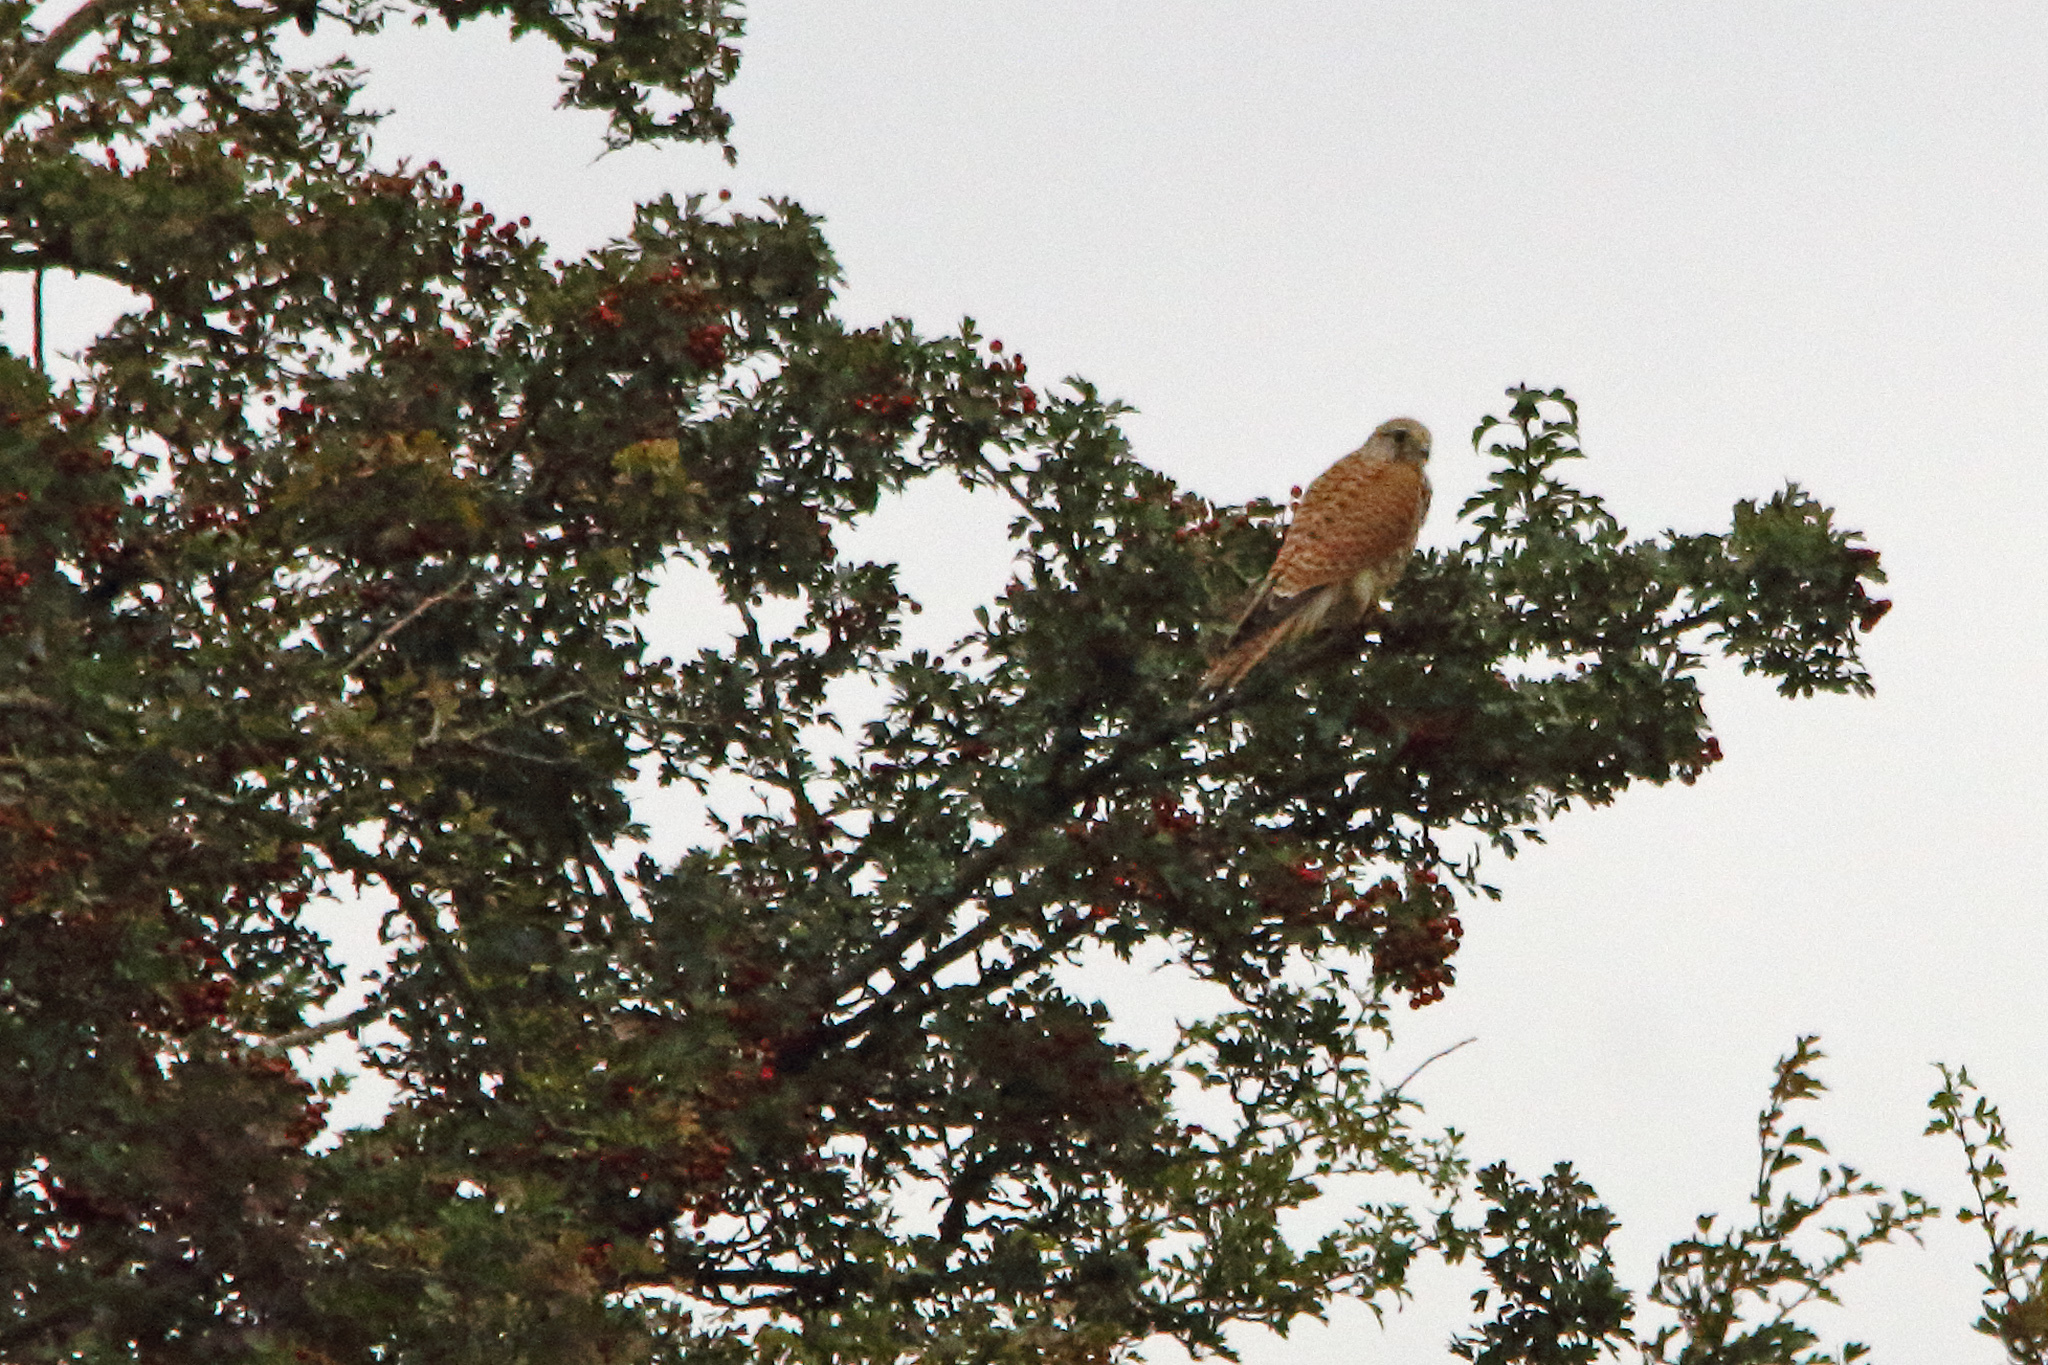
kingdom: Animalia
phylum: Chordata
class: Aves
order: Falconiformes
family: Falconidae
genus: Falco
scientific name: Falco tinnunculus
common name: Common kestrel
